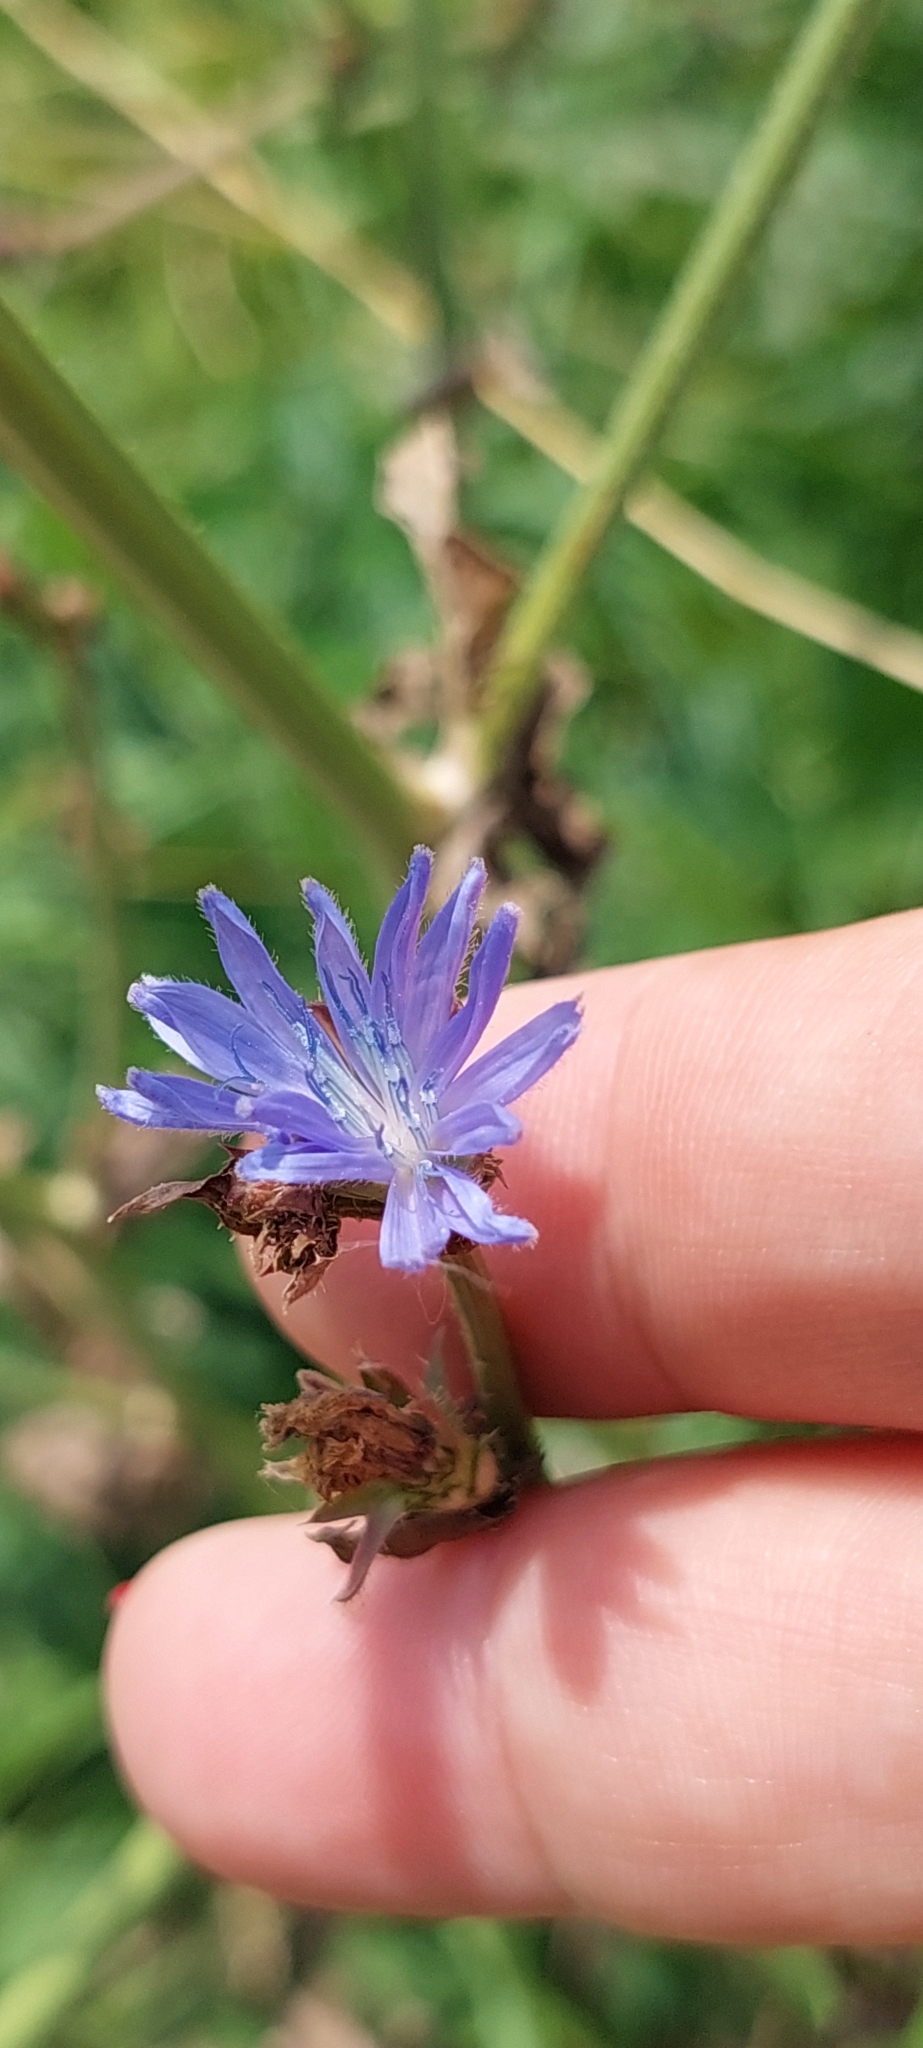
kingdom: Plantae
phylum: Tracheophyta
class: Magnoliopsida
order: Asterales
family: Asteraceae
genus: Cichorium
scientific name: Cichorium intybus
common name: Chicory
